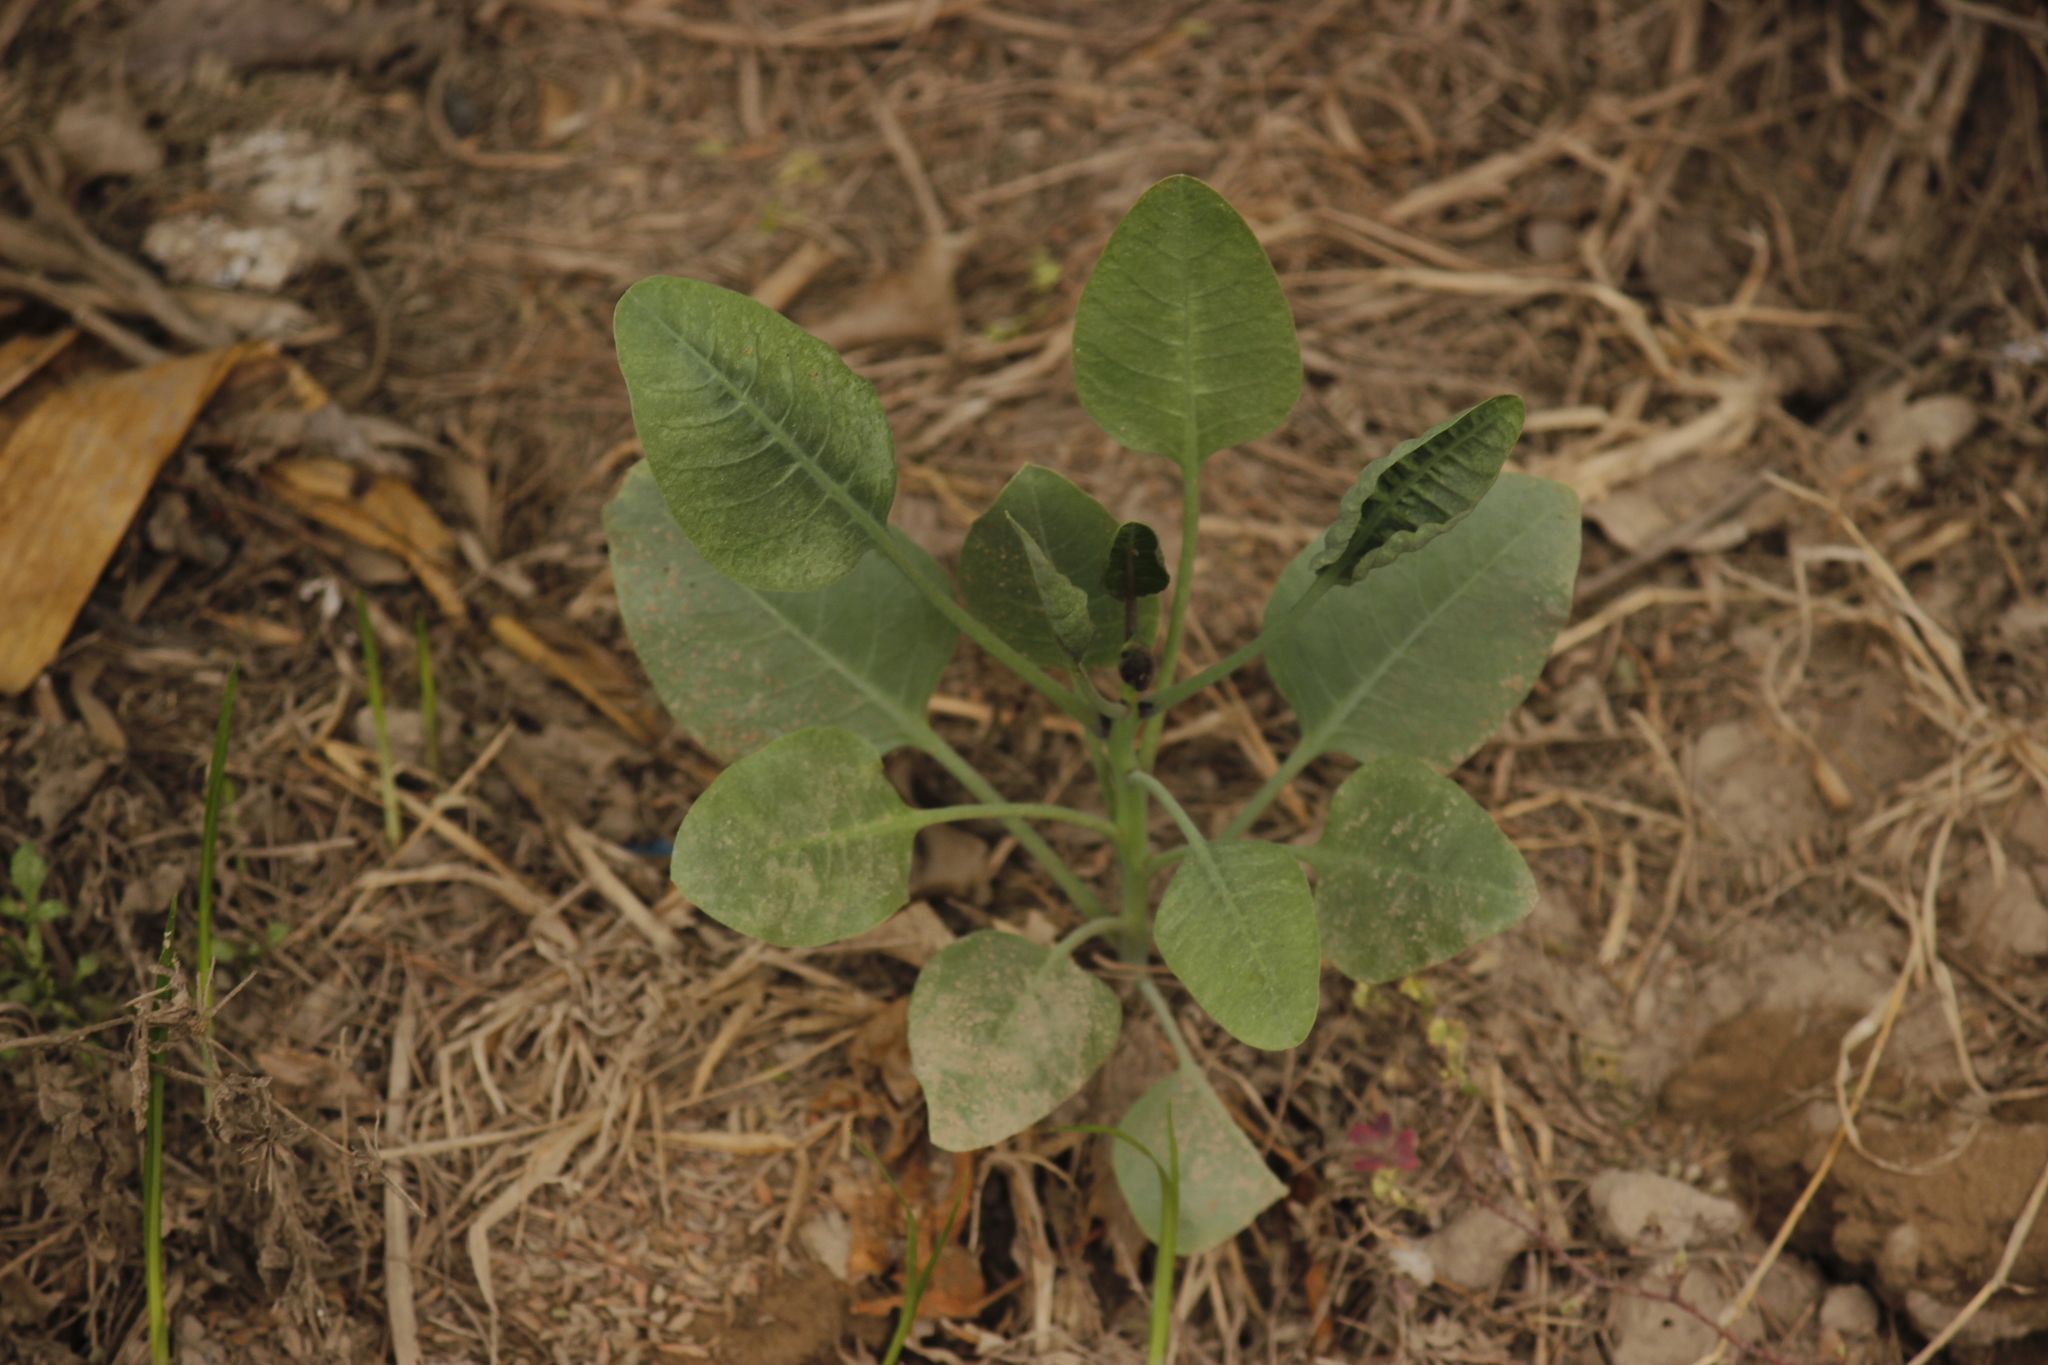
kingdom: Plantae
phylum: Tracheophyta
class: Magnoliopsida
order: Solanales
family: Solanaceae
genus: Nicotiana
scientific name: Nicotiana glauca
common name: Tree tobacco
